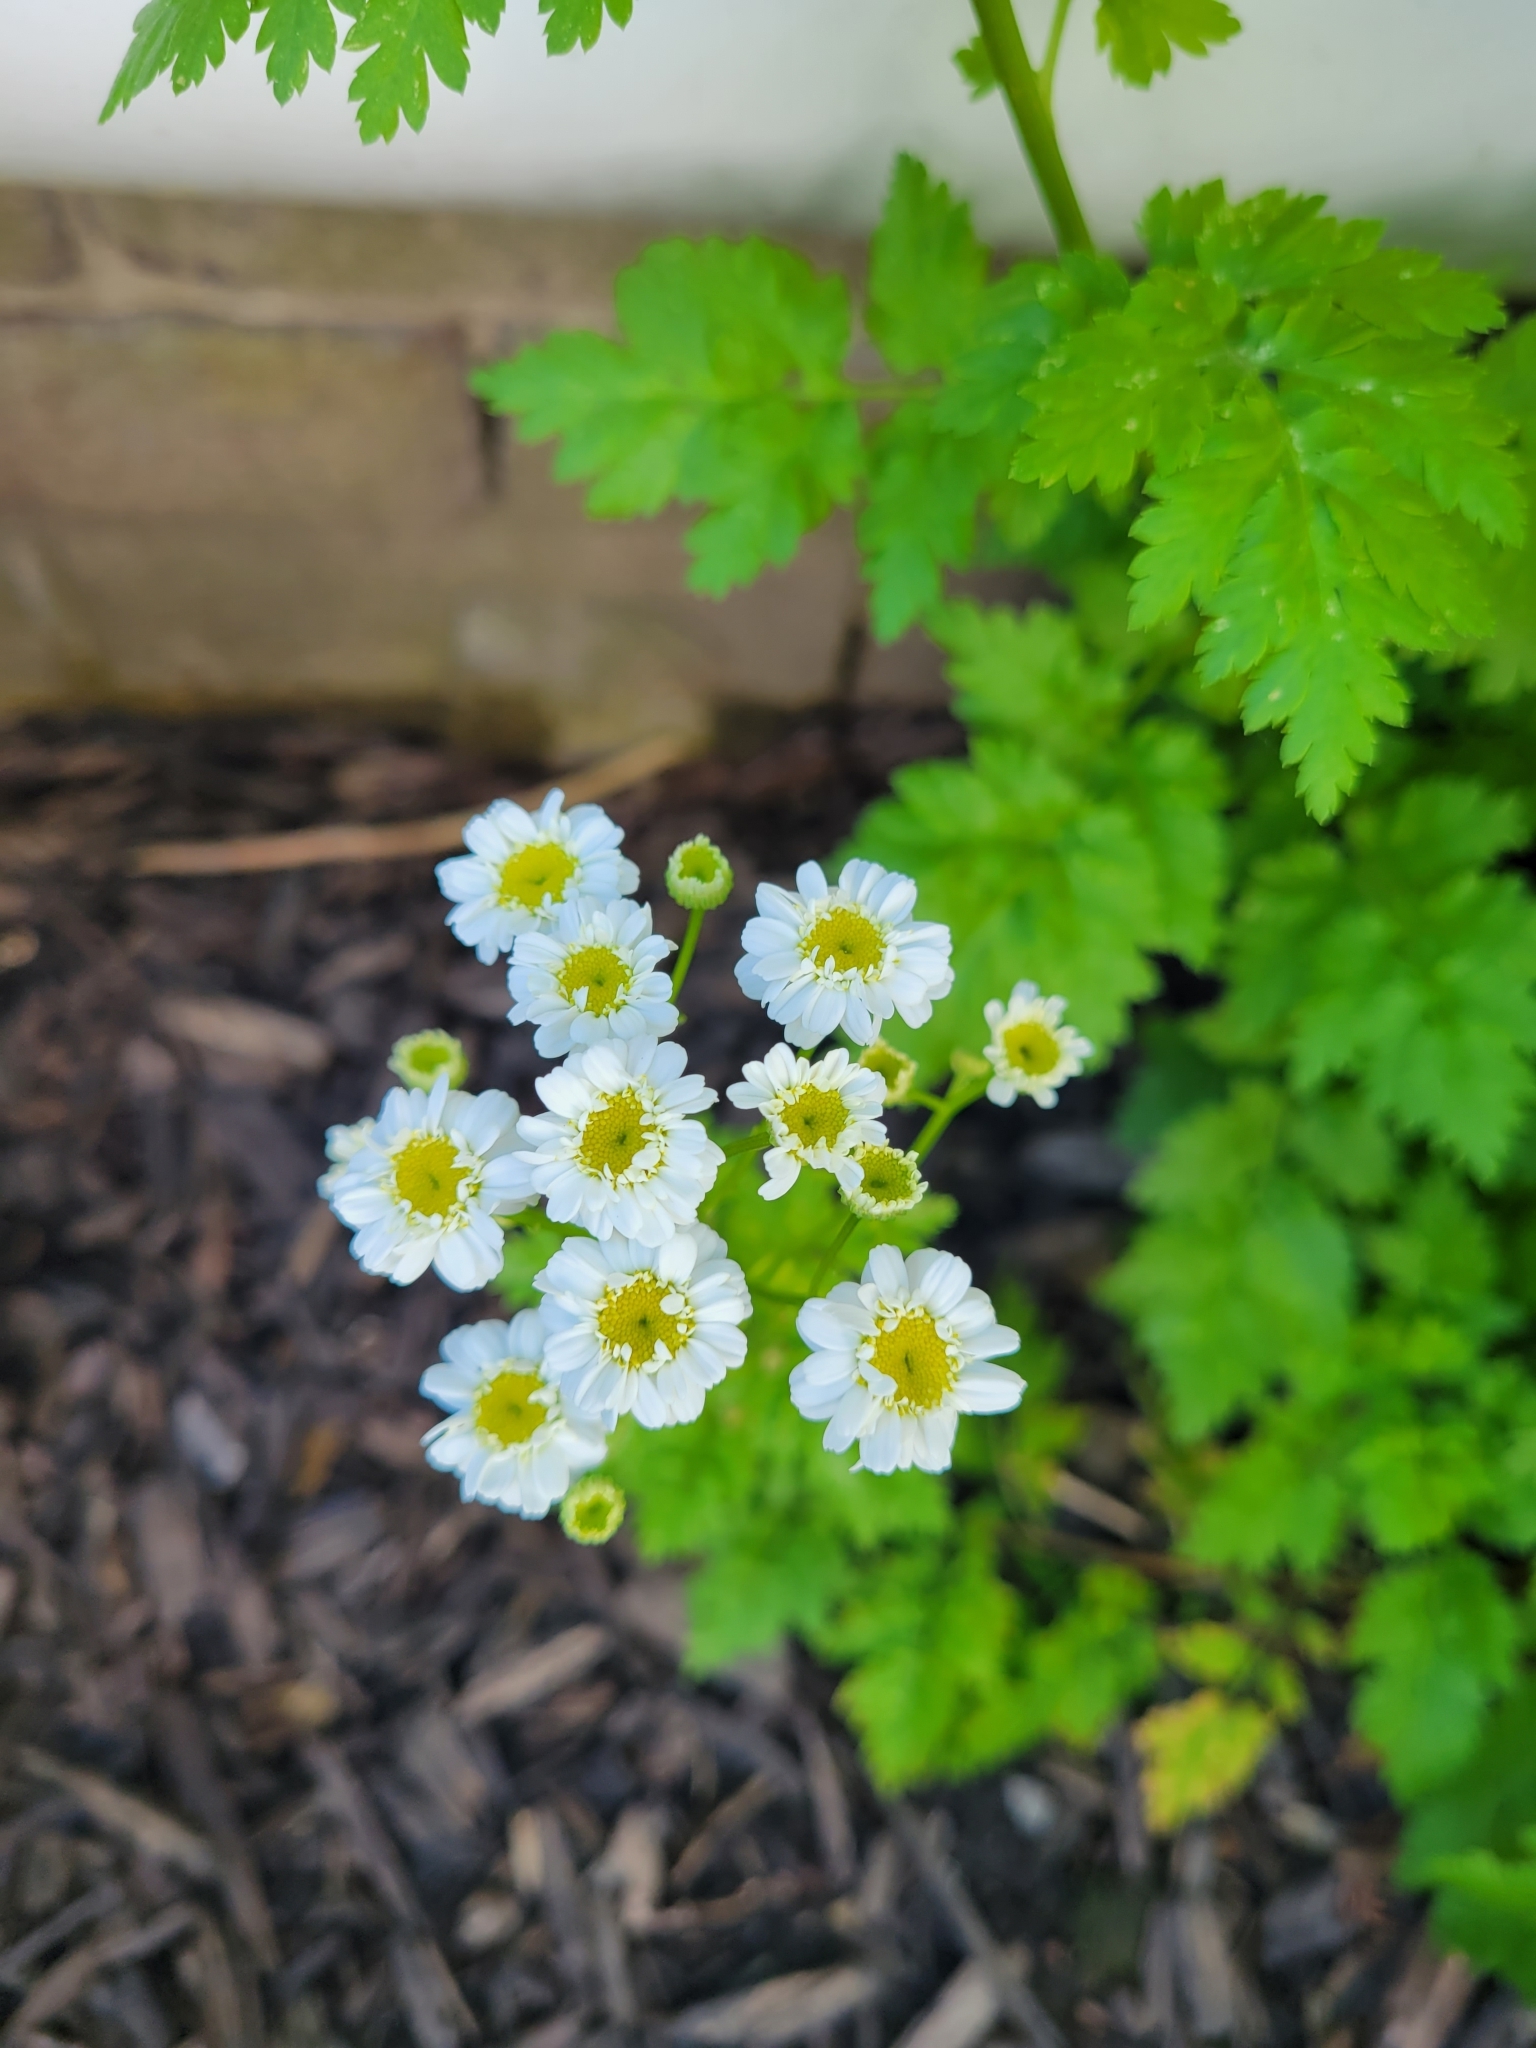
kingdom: Plantae
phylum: Tracheophyta
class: Magnoliopsida
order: Asterales
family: Asteraceae
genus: Tanacetum
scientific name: Tanacetum parthenium
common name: Feverfew
